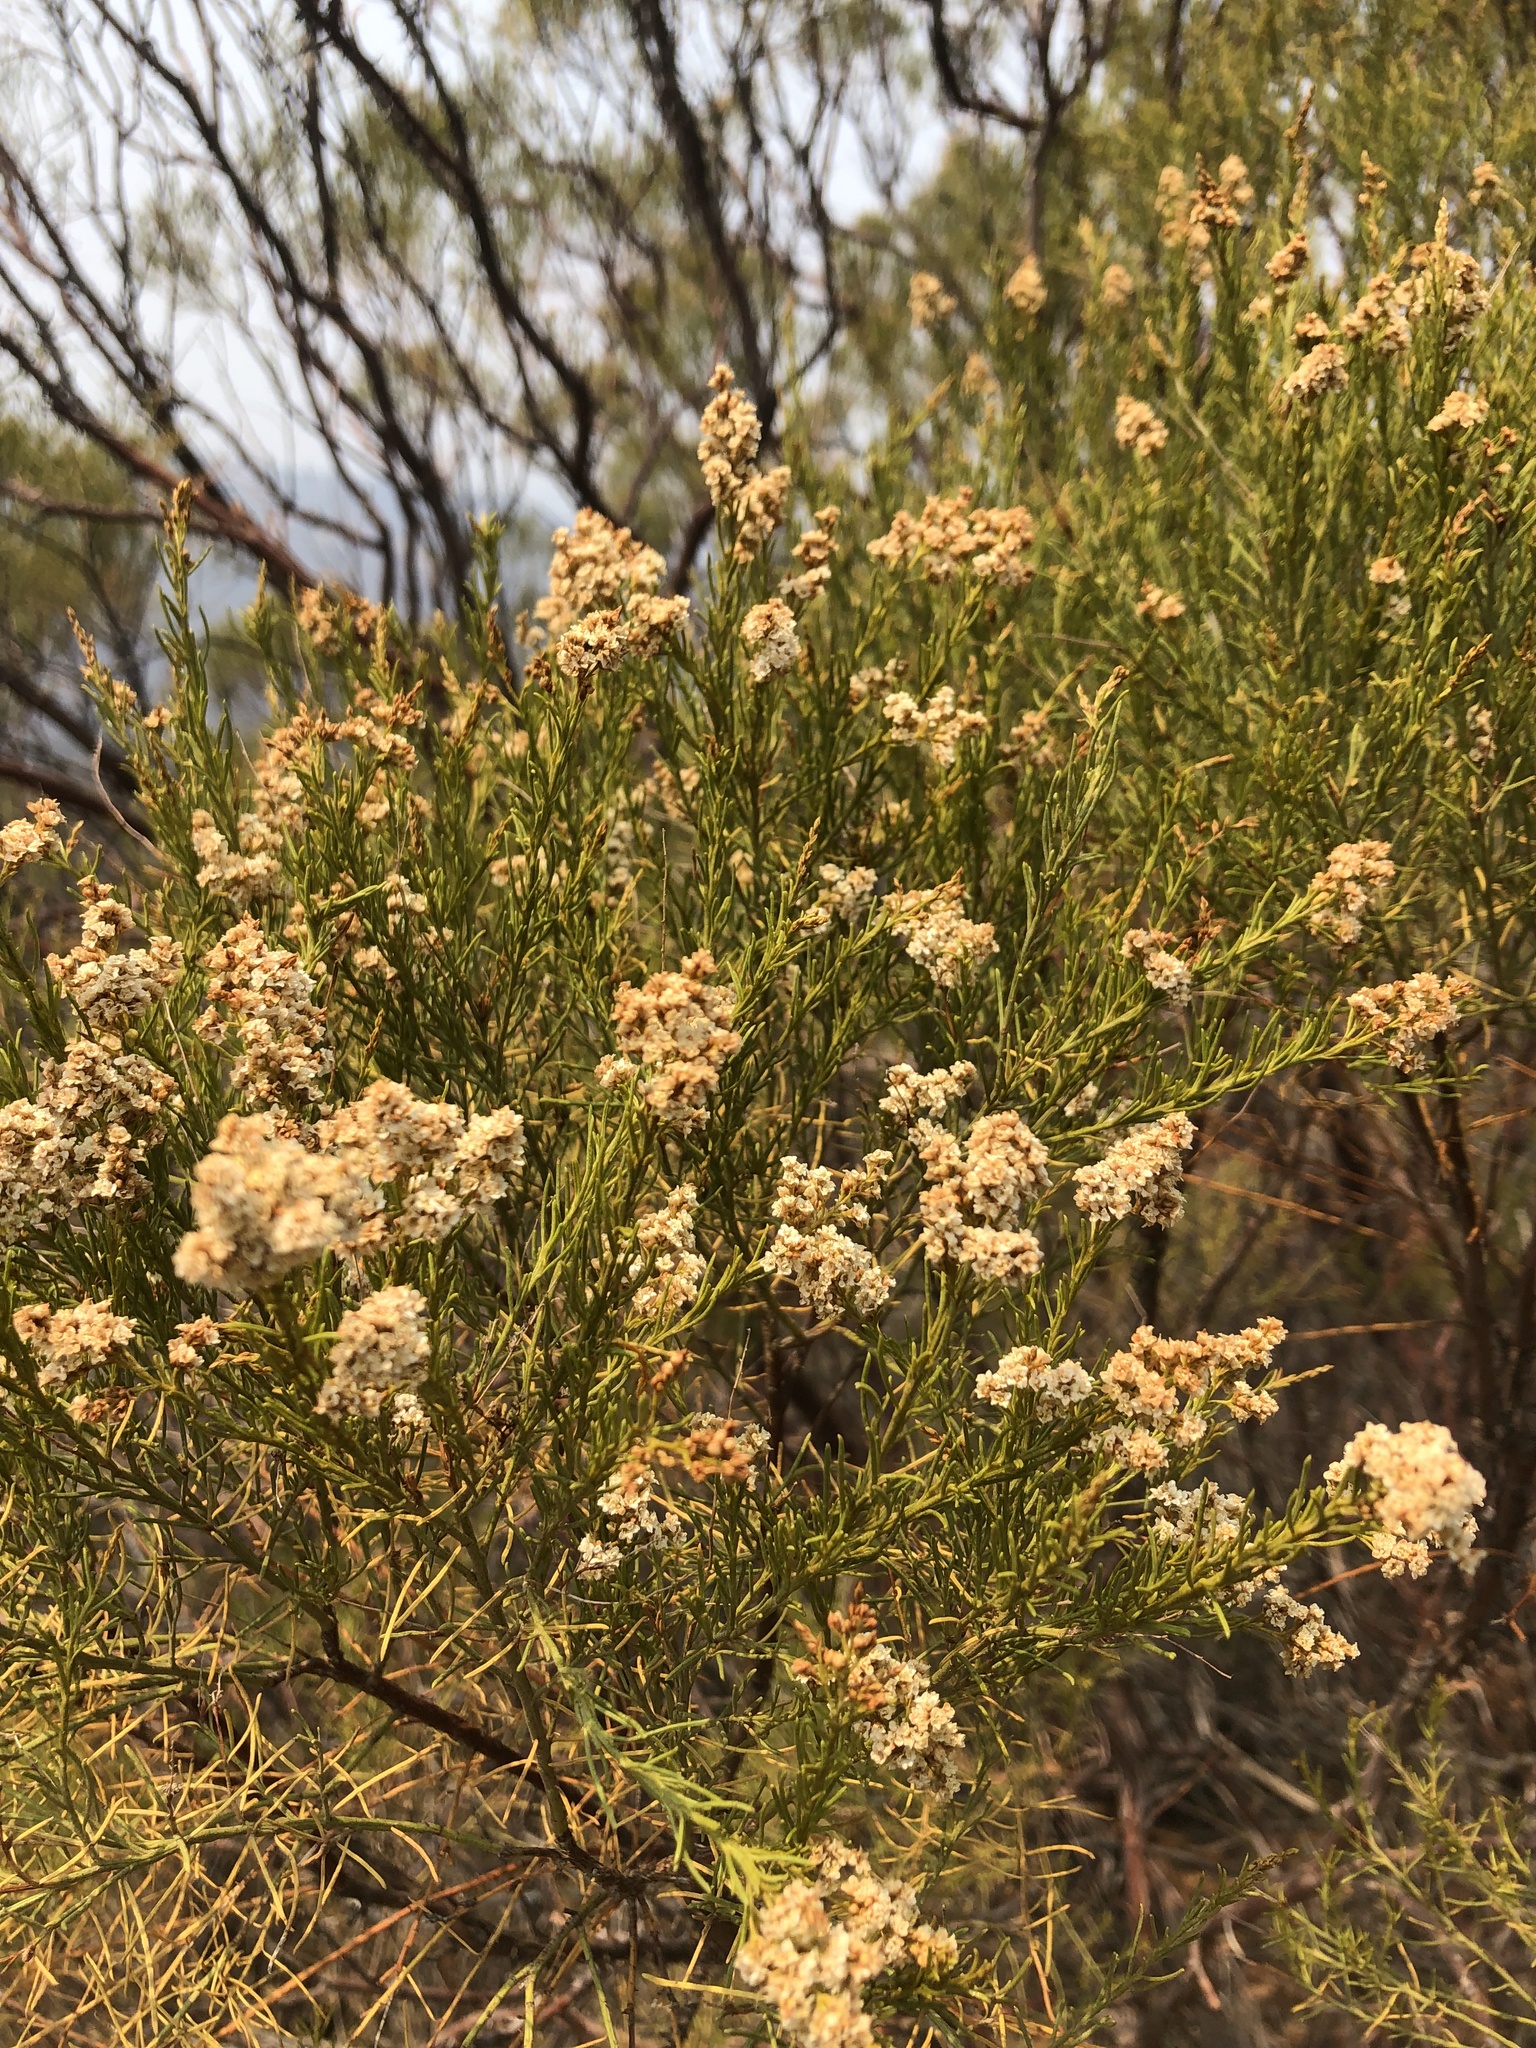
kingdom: Plantae
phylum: Tracheophyta
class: Magnoliopsida
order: Rosales
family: Rosaceae
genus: Adenostoma
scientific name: Adenostoma sparsifolium
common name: Red shank
